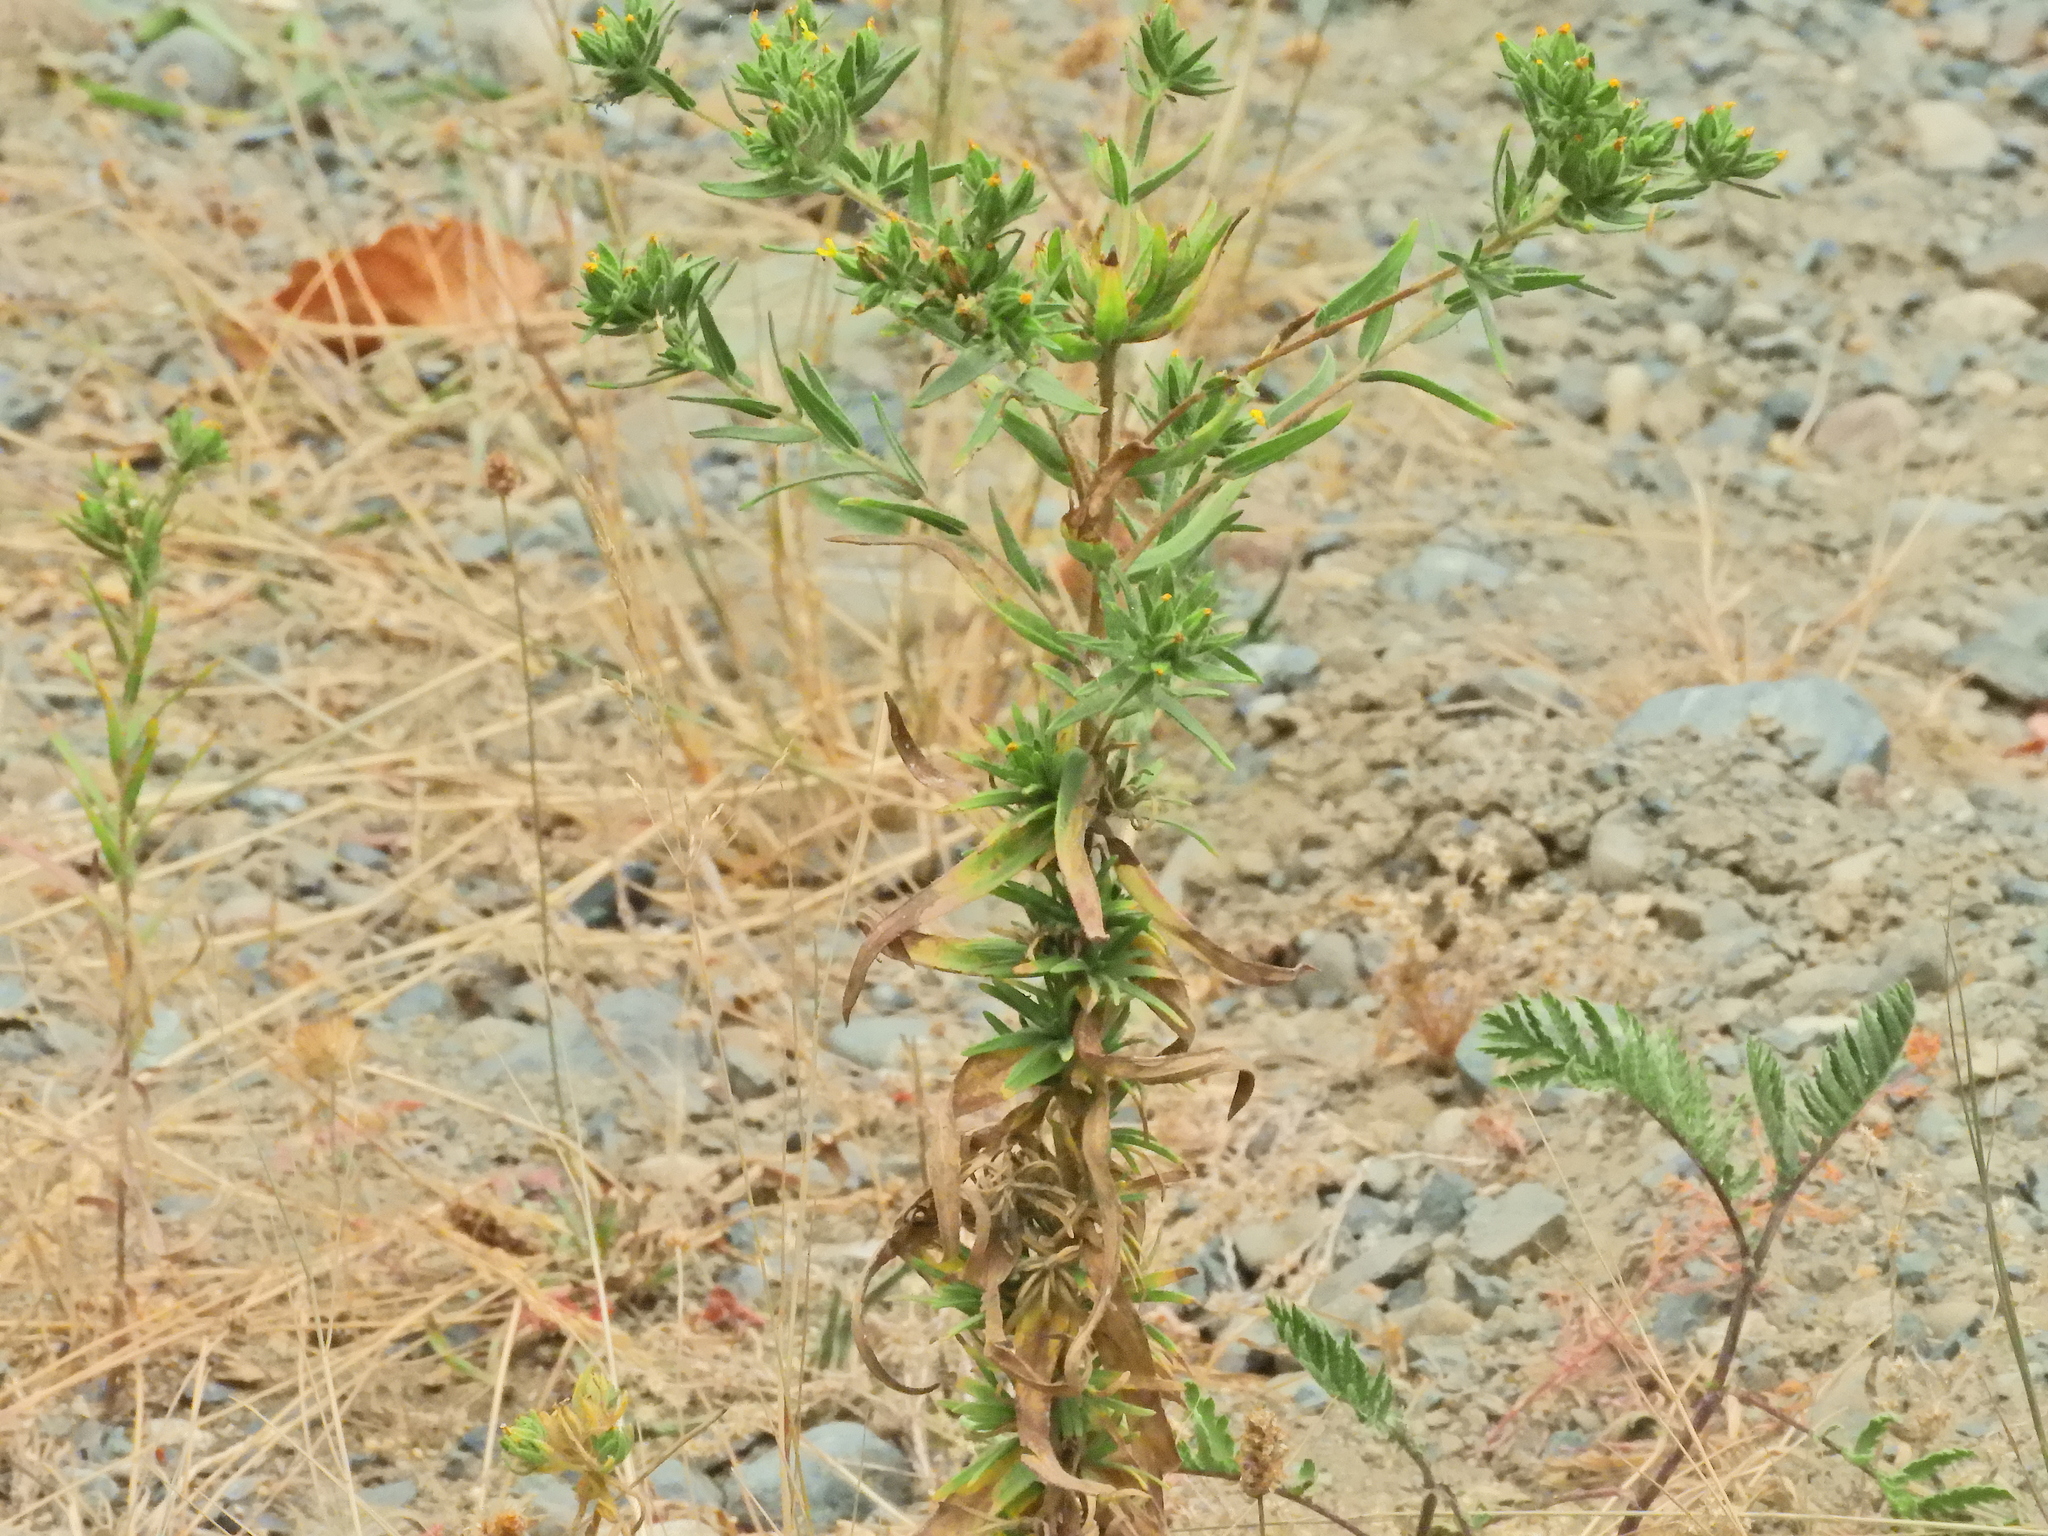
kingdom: Plantae
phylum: Tracheophyta
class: Magnoliopsida
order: Asterales
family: Asteraceae
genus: Madia
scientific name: Madia glomerata
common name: Mountain tarweed
